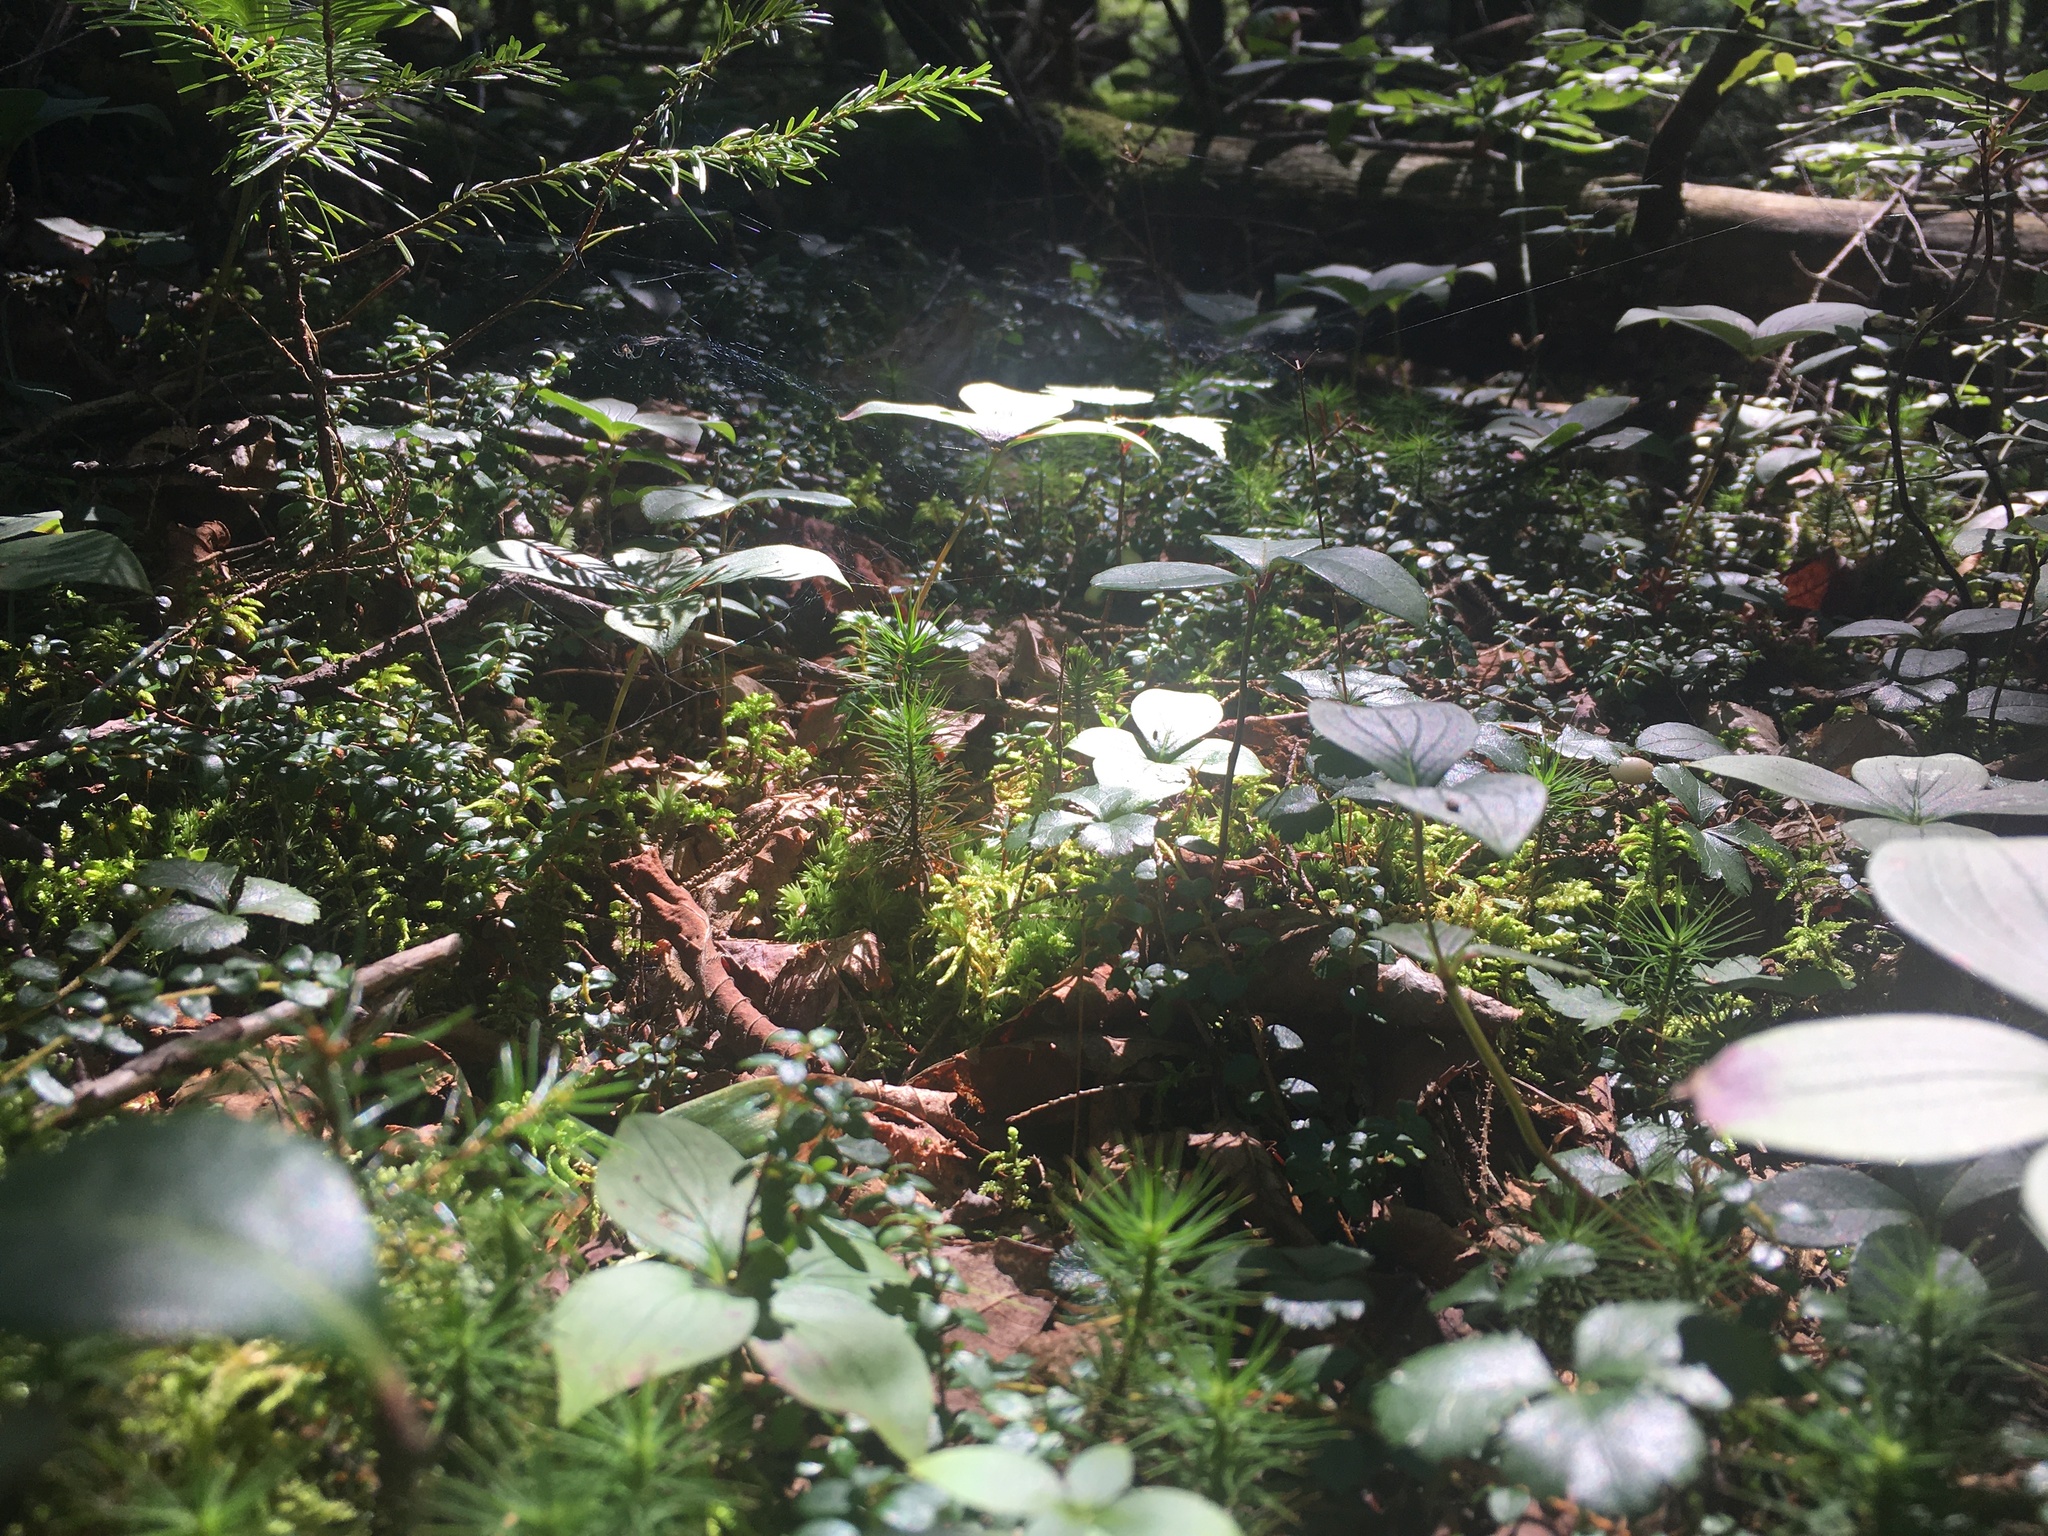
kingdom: Plantae
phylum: Tracheophyta
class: Magnoliopsida
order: Cornales
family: Cornaceae
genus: Cornus
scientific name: Cornus canadensis
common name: Creeping dogwood
